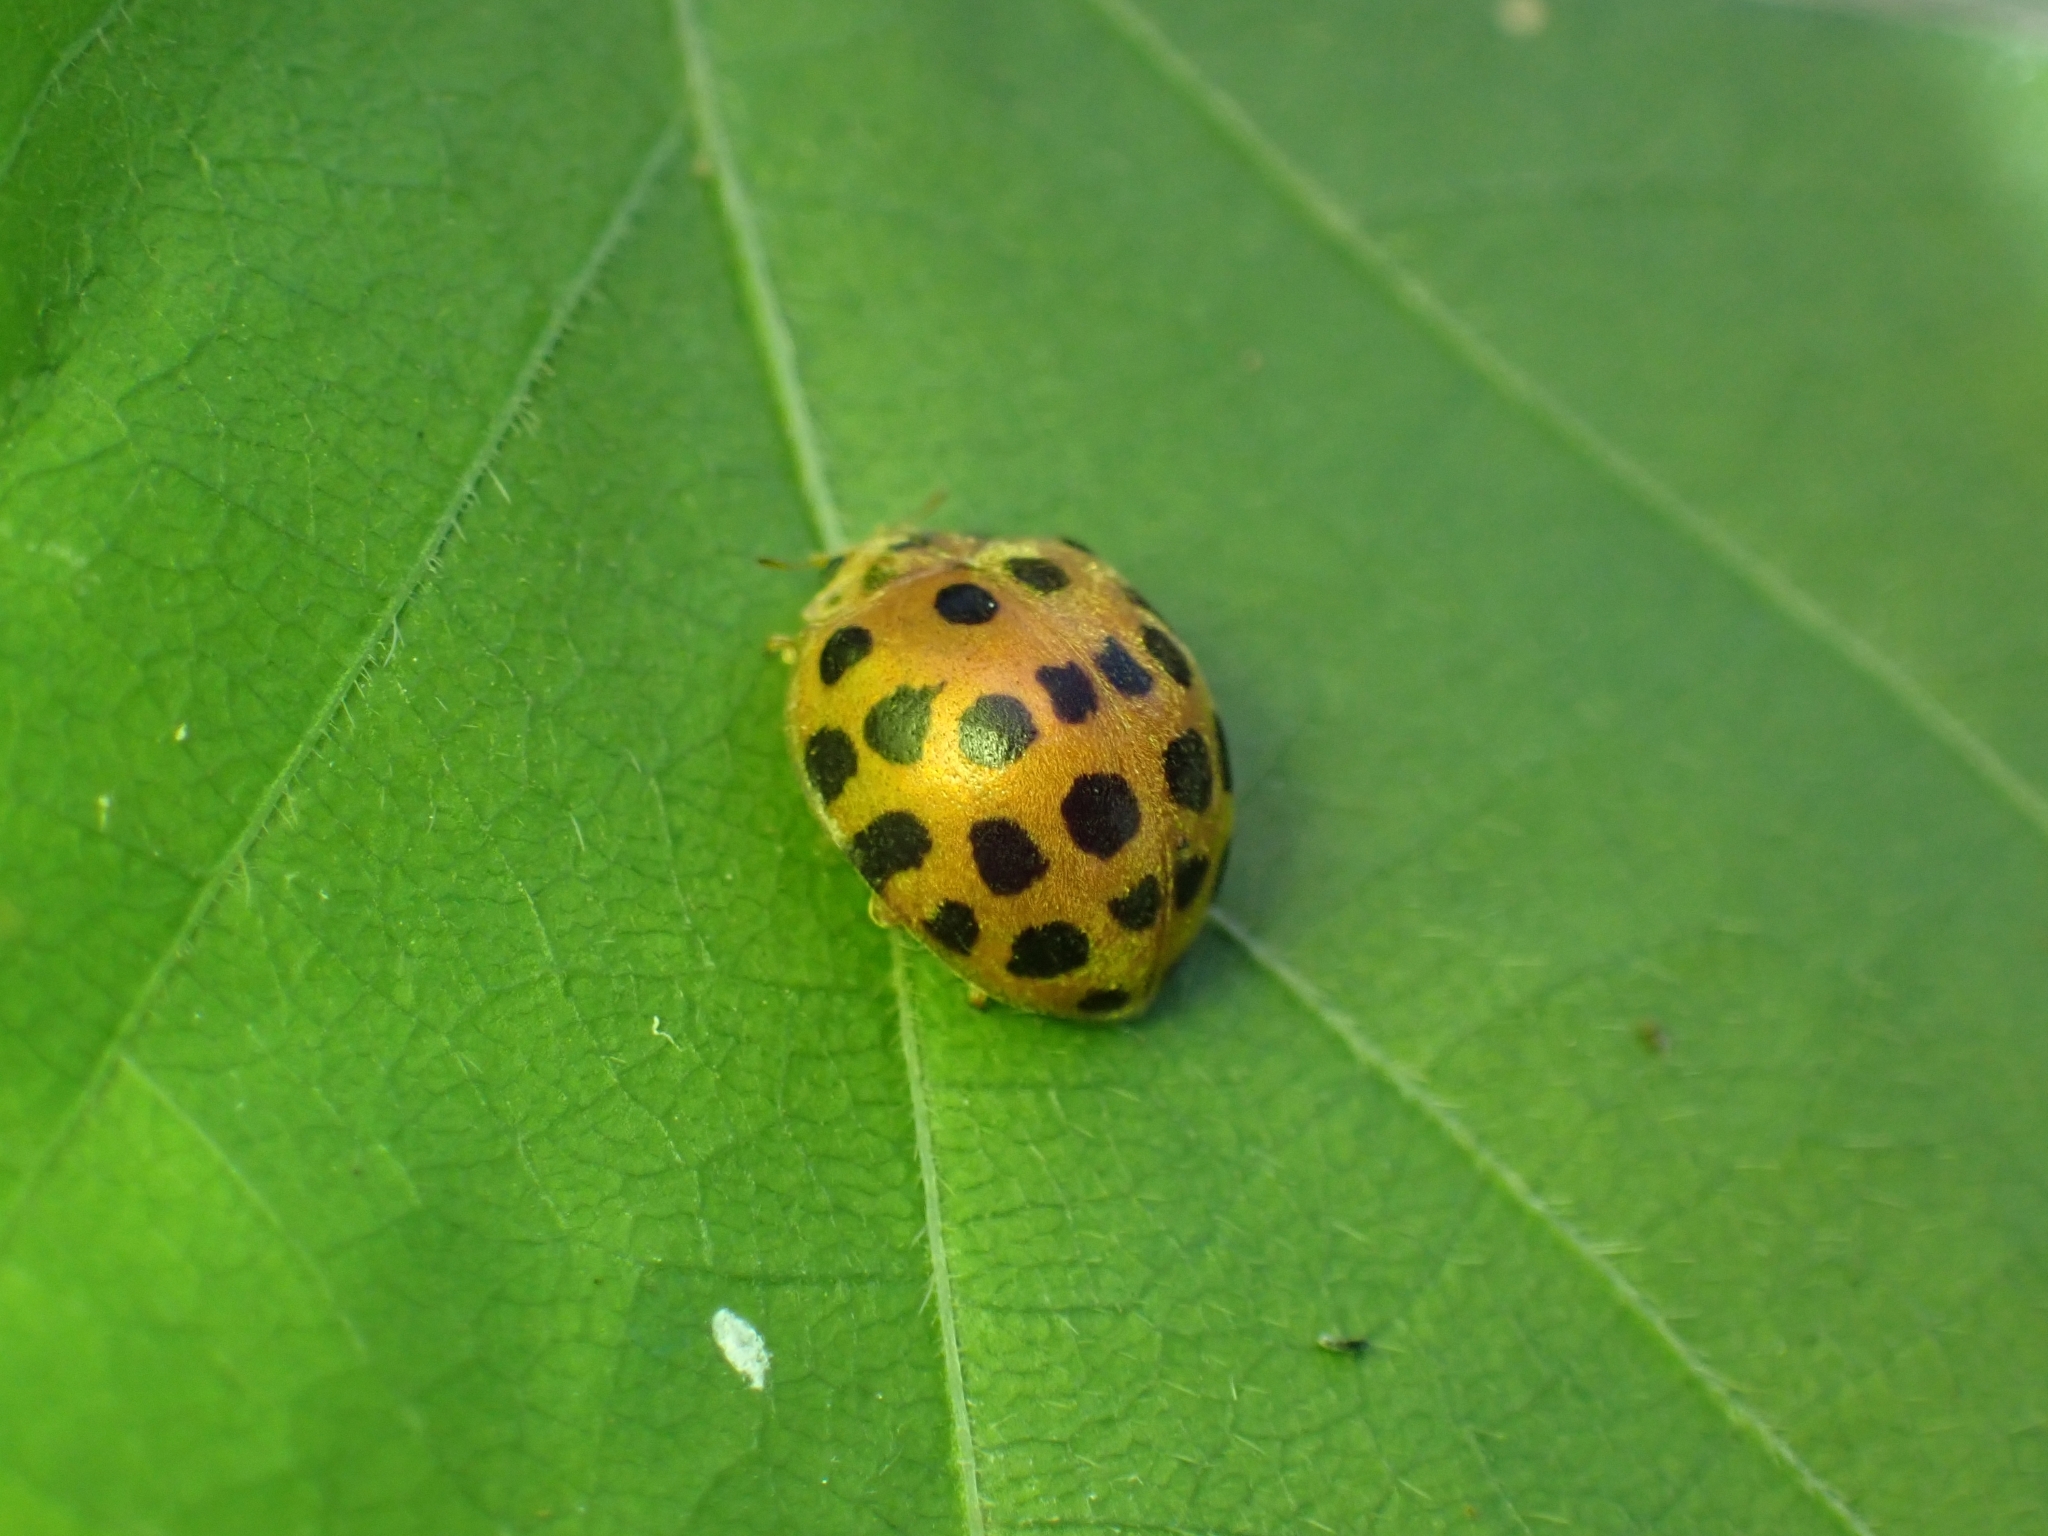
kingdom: Animalia
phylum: Arthropoda
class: Insecta
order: Coleoptera
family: Coccinellidae
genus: Henosepilachna
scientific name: Henosepilachna vigintioctopunctata
